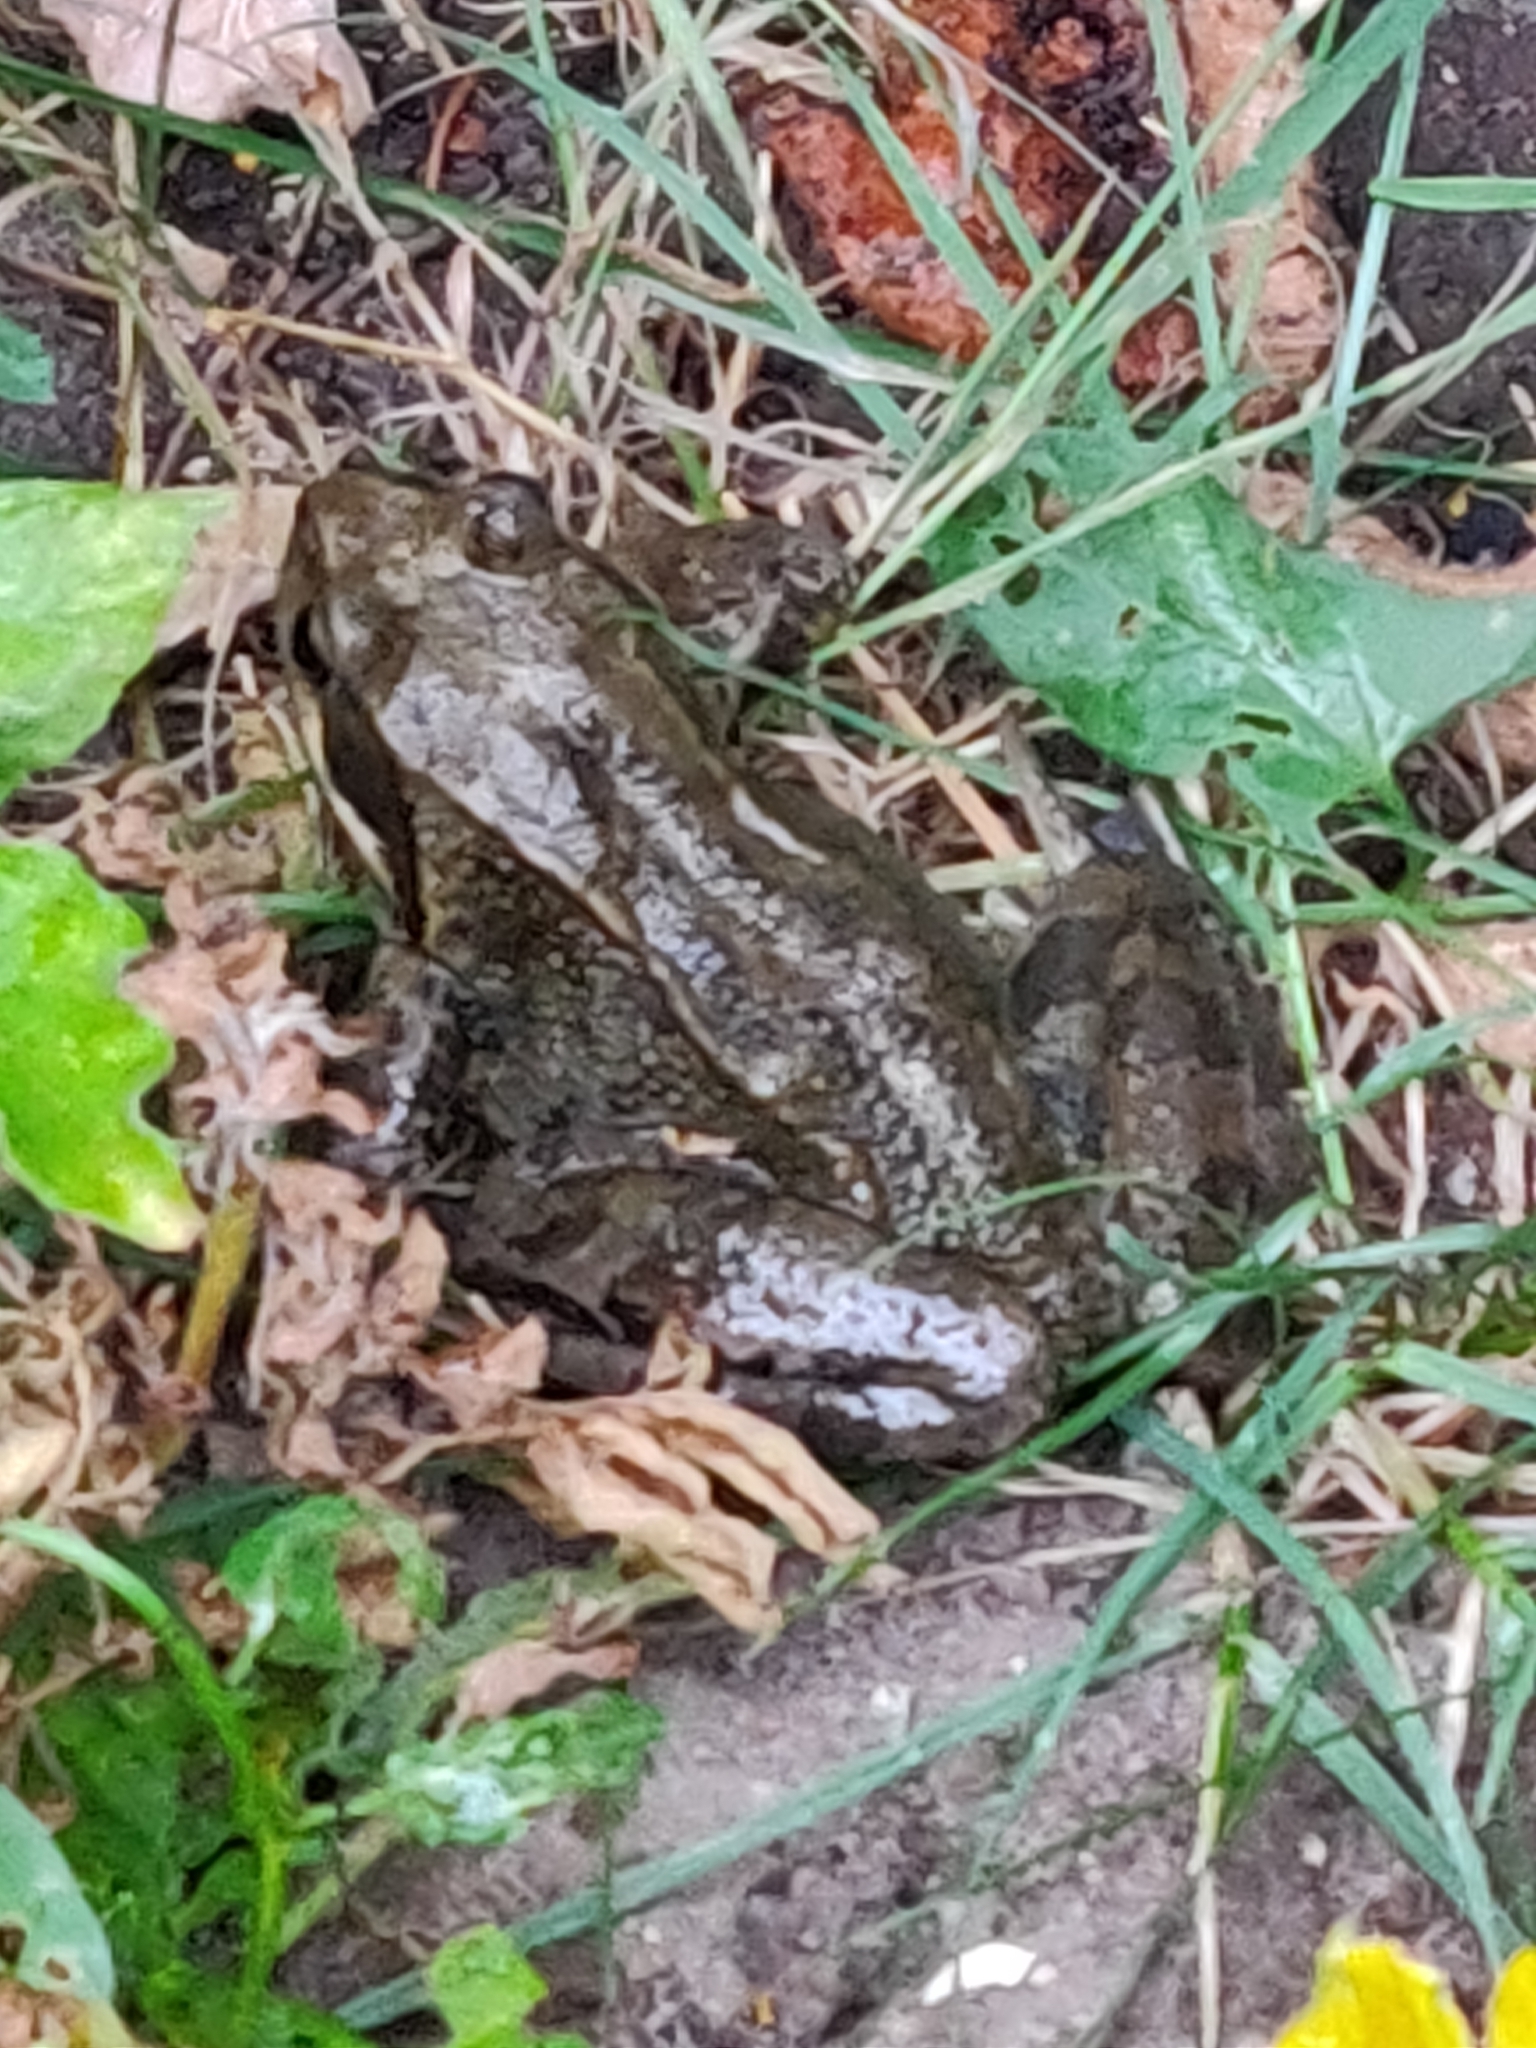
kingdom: Animalia
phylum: Chordata
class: Amphibia
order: Anura
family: Ranidae
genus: Rana
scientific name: Rana temporaria
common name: Common frog
